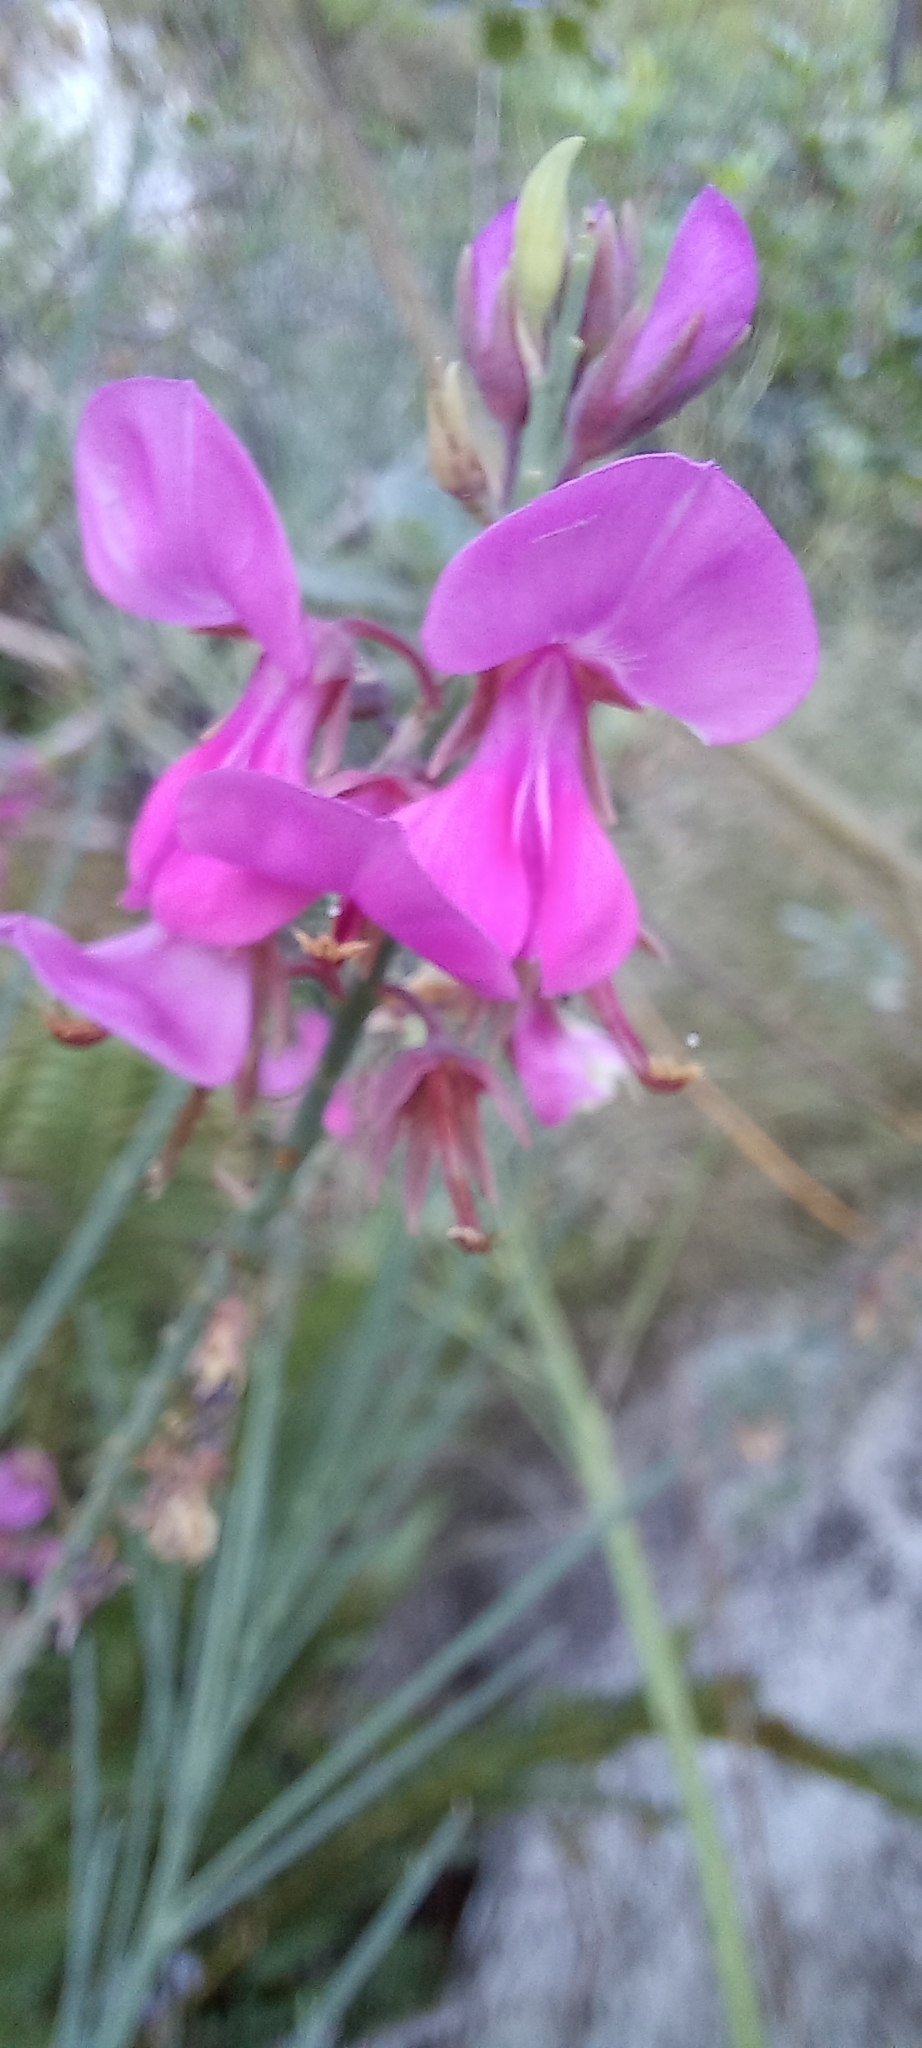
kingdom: Plantae
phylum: Tracheophyta
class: Magnoliopsida
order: Fabales
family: Fabaceae
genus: Indigofera
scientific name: Indigofera filifolia
